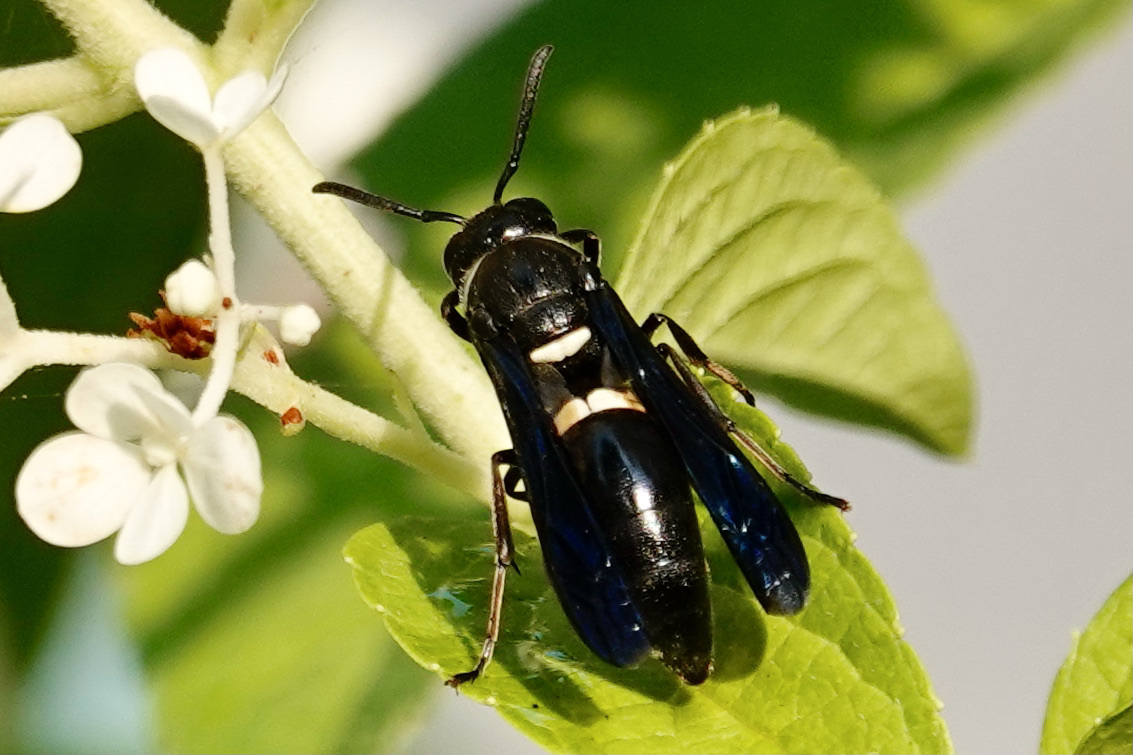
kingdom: Animalia
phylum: Arthropoda
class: Insecta
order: Hymenoptera
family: Eumenidae
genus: Monobia
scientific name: Monobia quadridens
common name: Four-toothed mason wasp
